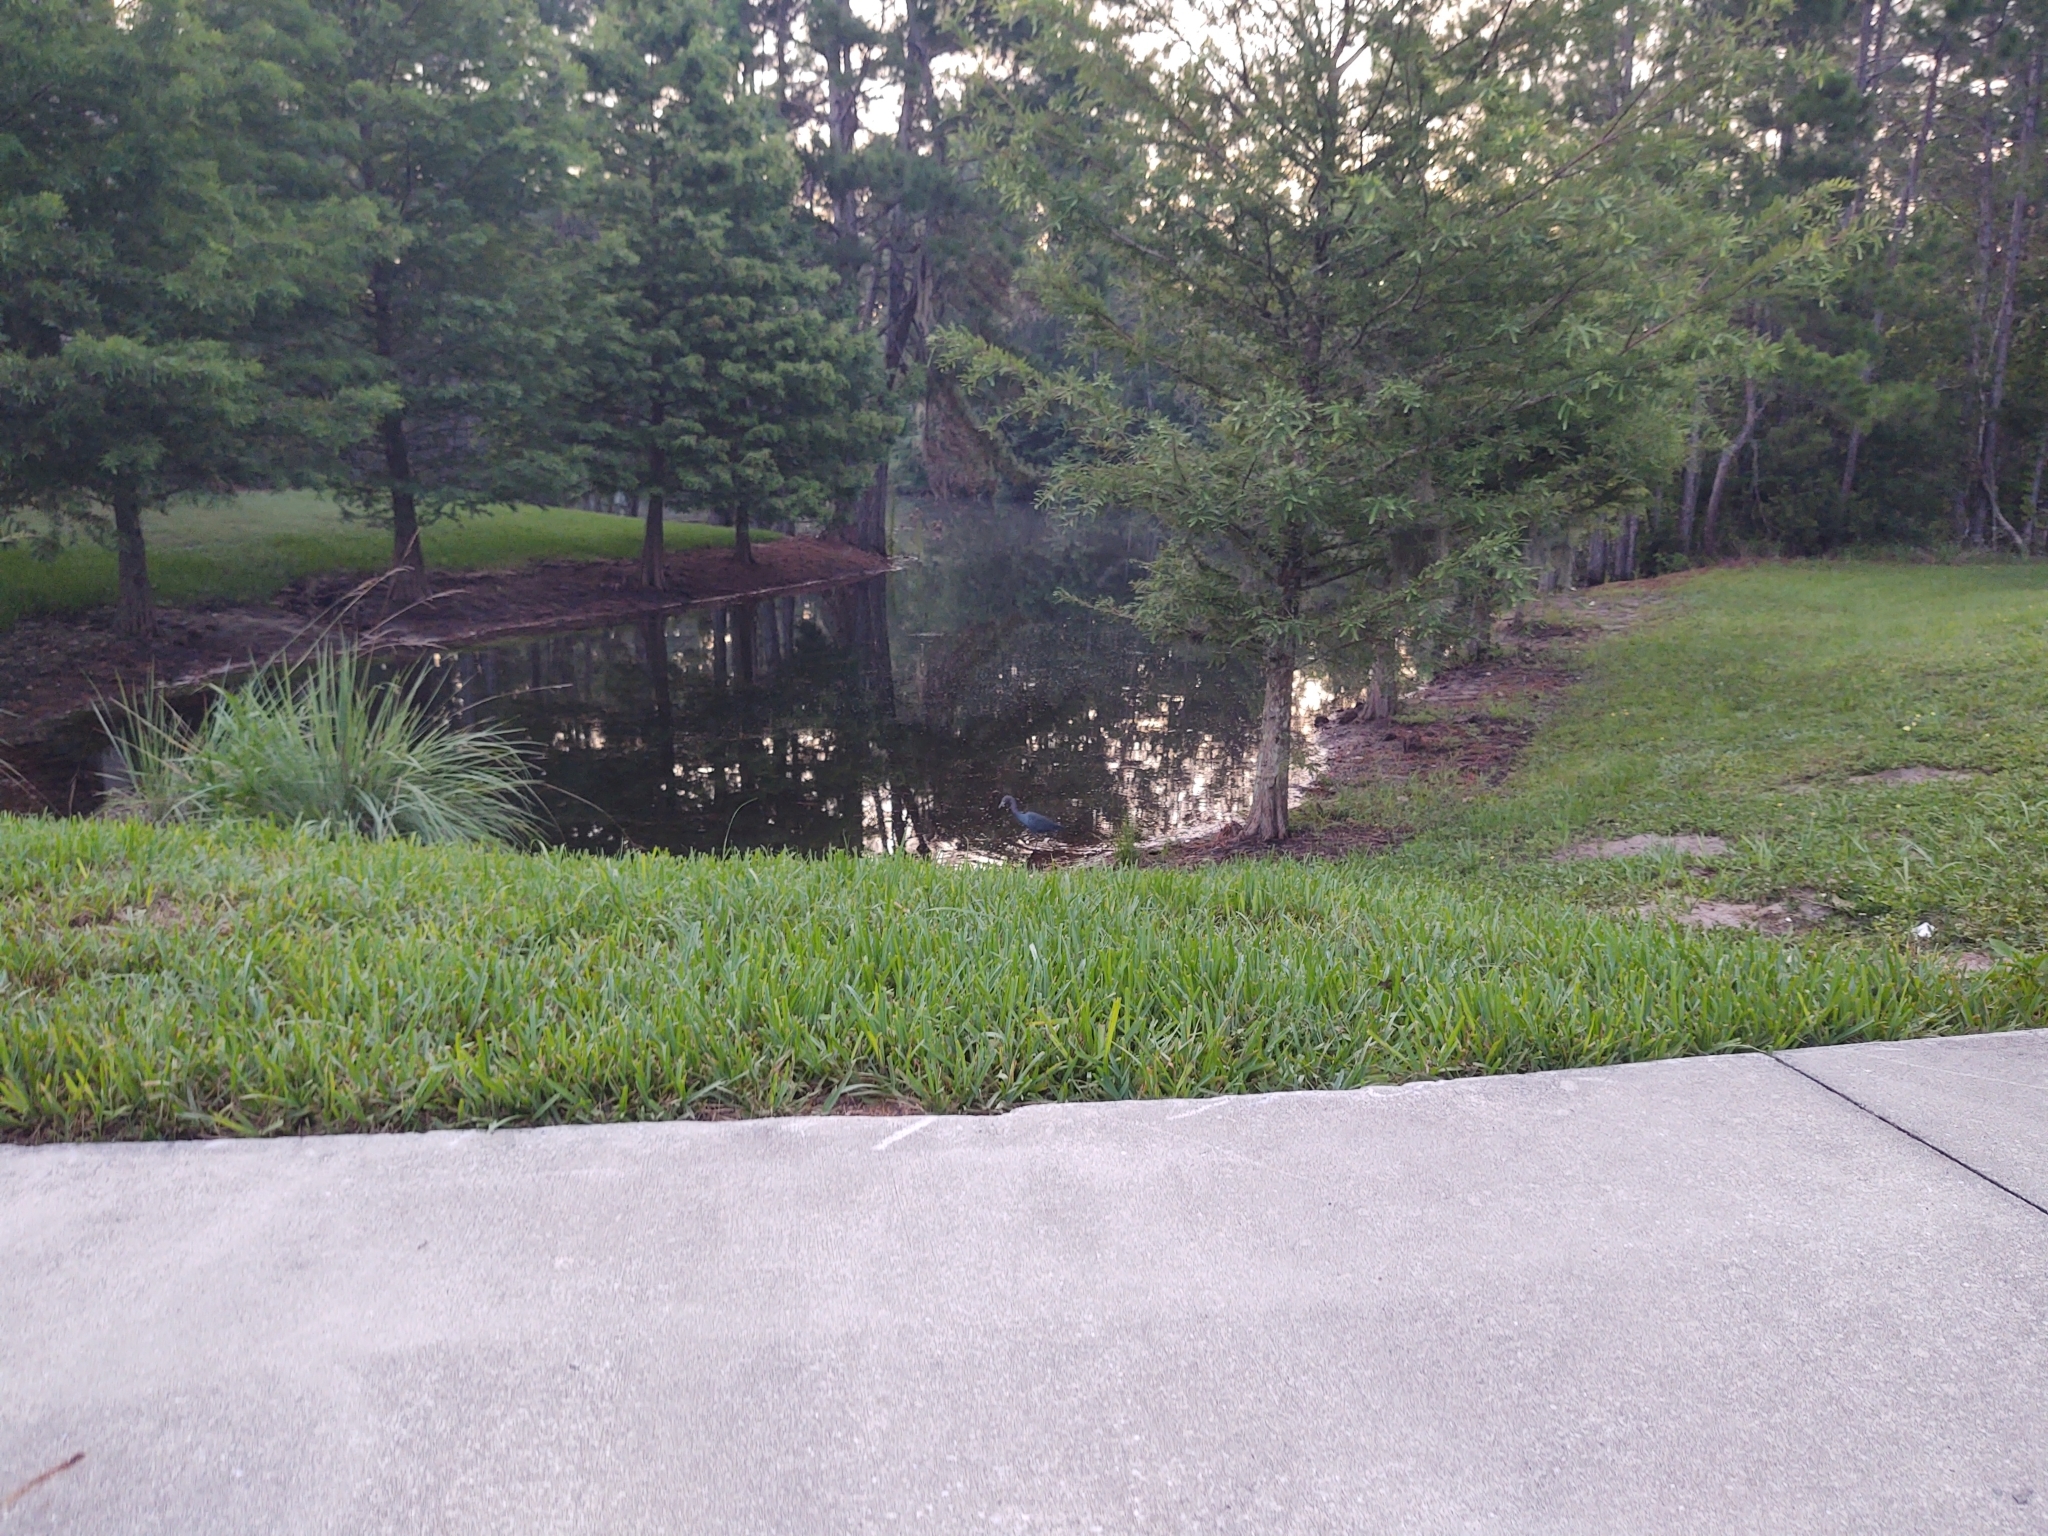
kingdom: Animalia
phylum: Chordata
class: Aves
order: Pelecaniformes
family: Ardeidae
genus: Egretta
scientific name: Egretta caerulea
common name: Little blue heron
